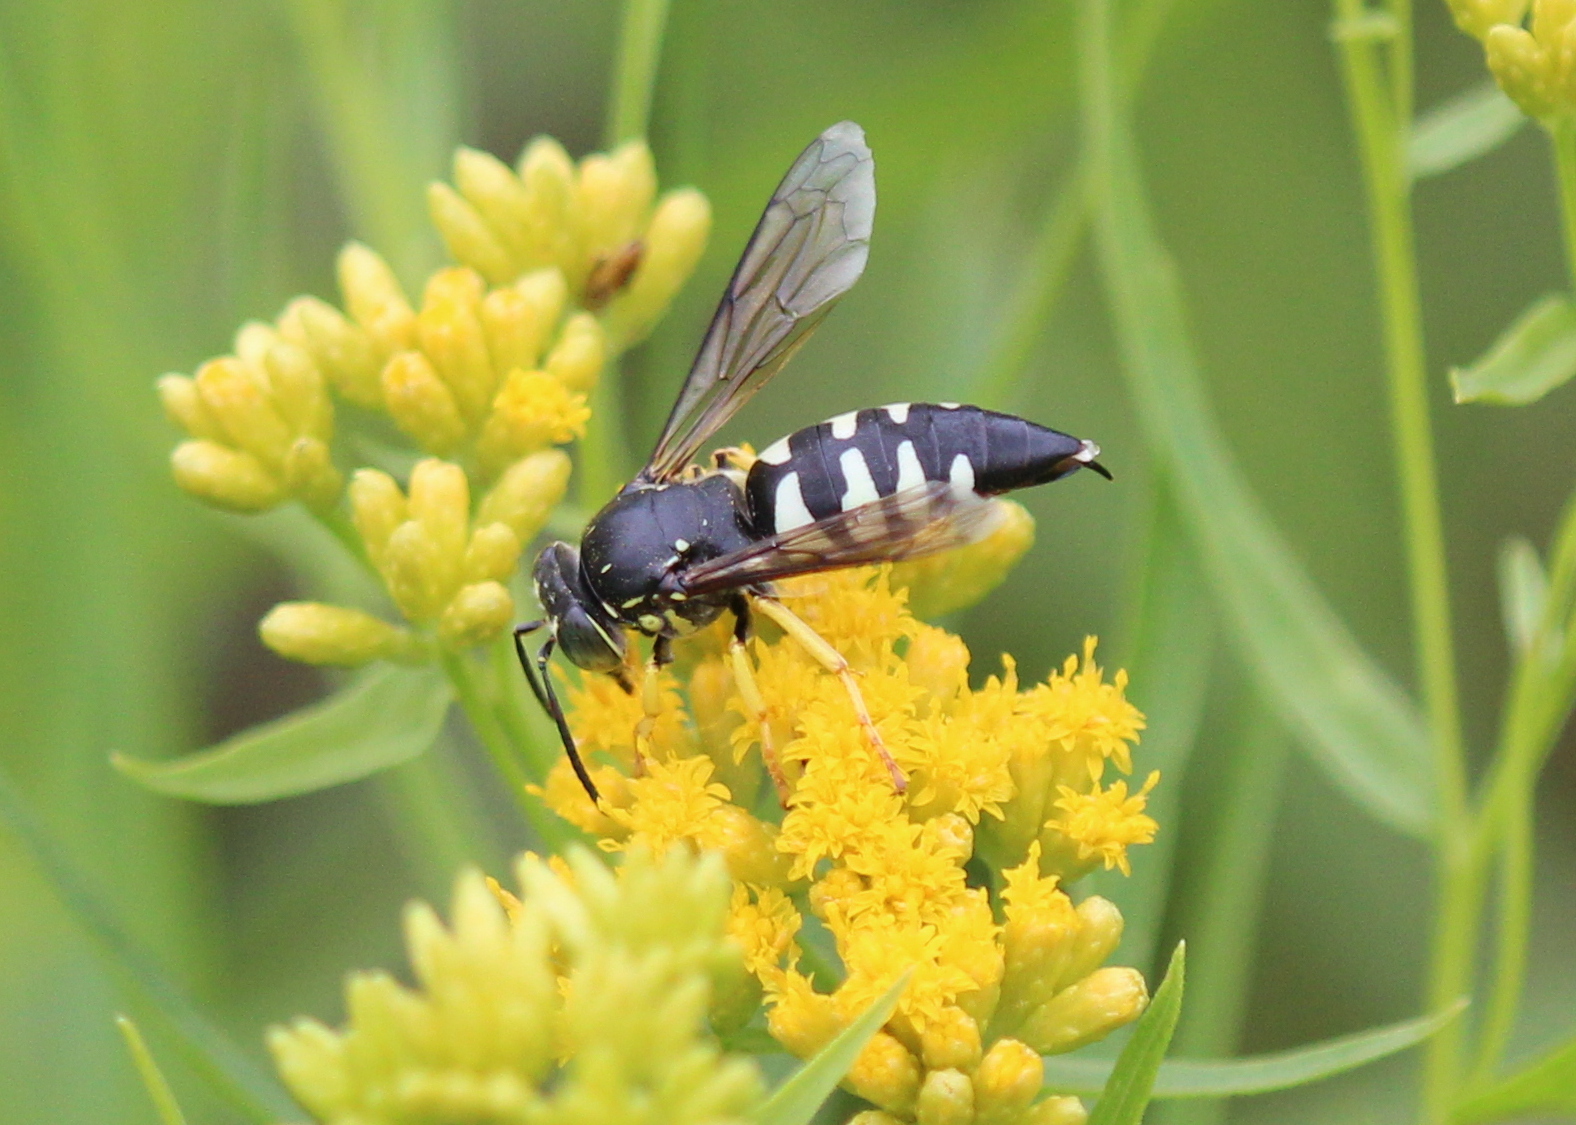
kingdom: Animalia
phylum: Arthropoda
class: Insecta
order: Hymenoptera
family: Crabronidae
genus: Bicyrtes
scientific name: Bicyrtes quadrifasciatus
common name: Four-banded stink bug hunter wasp
